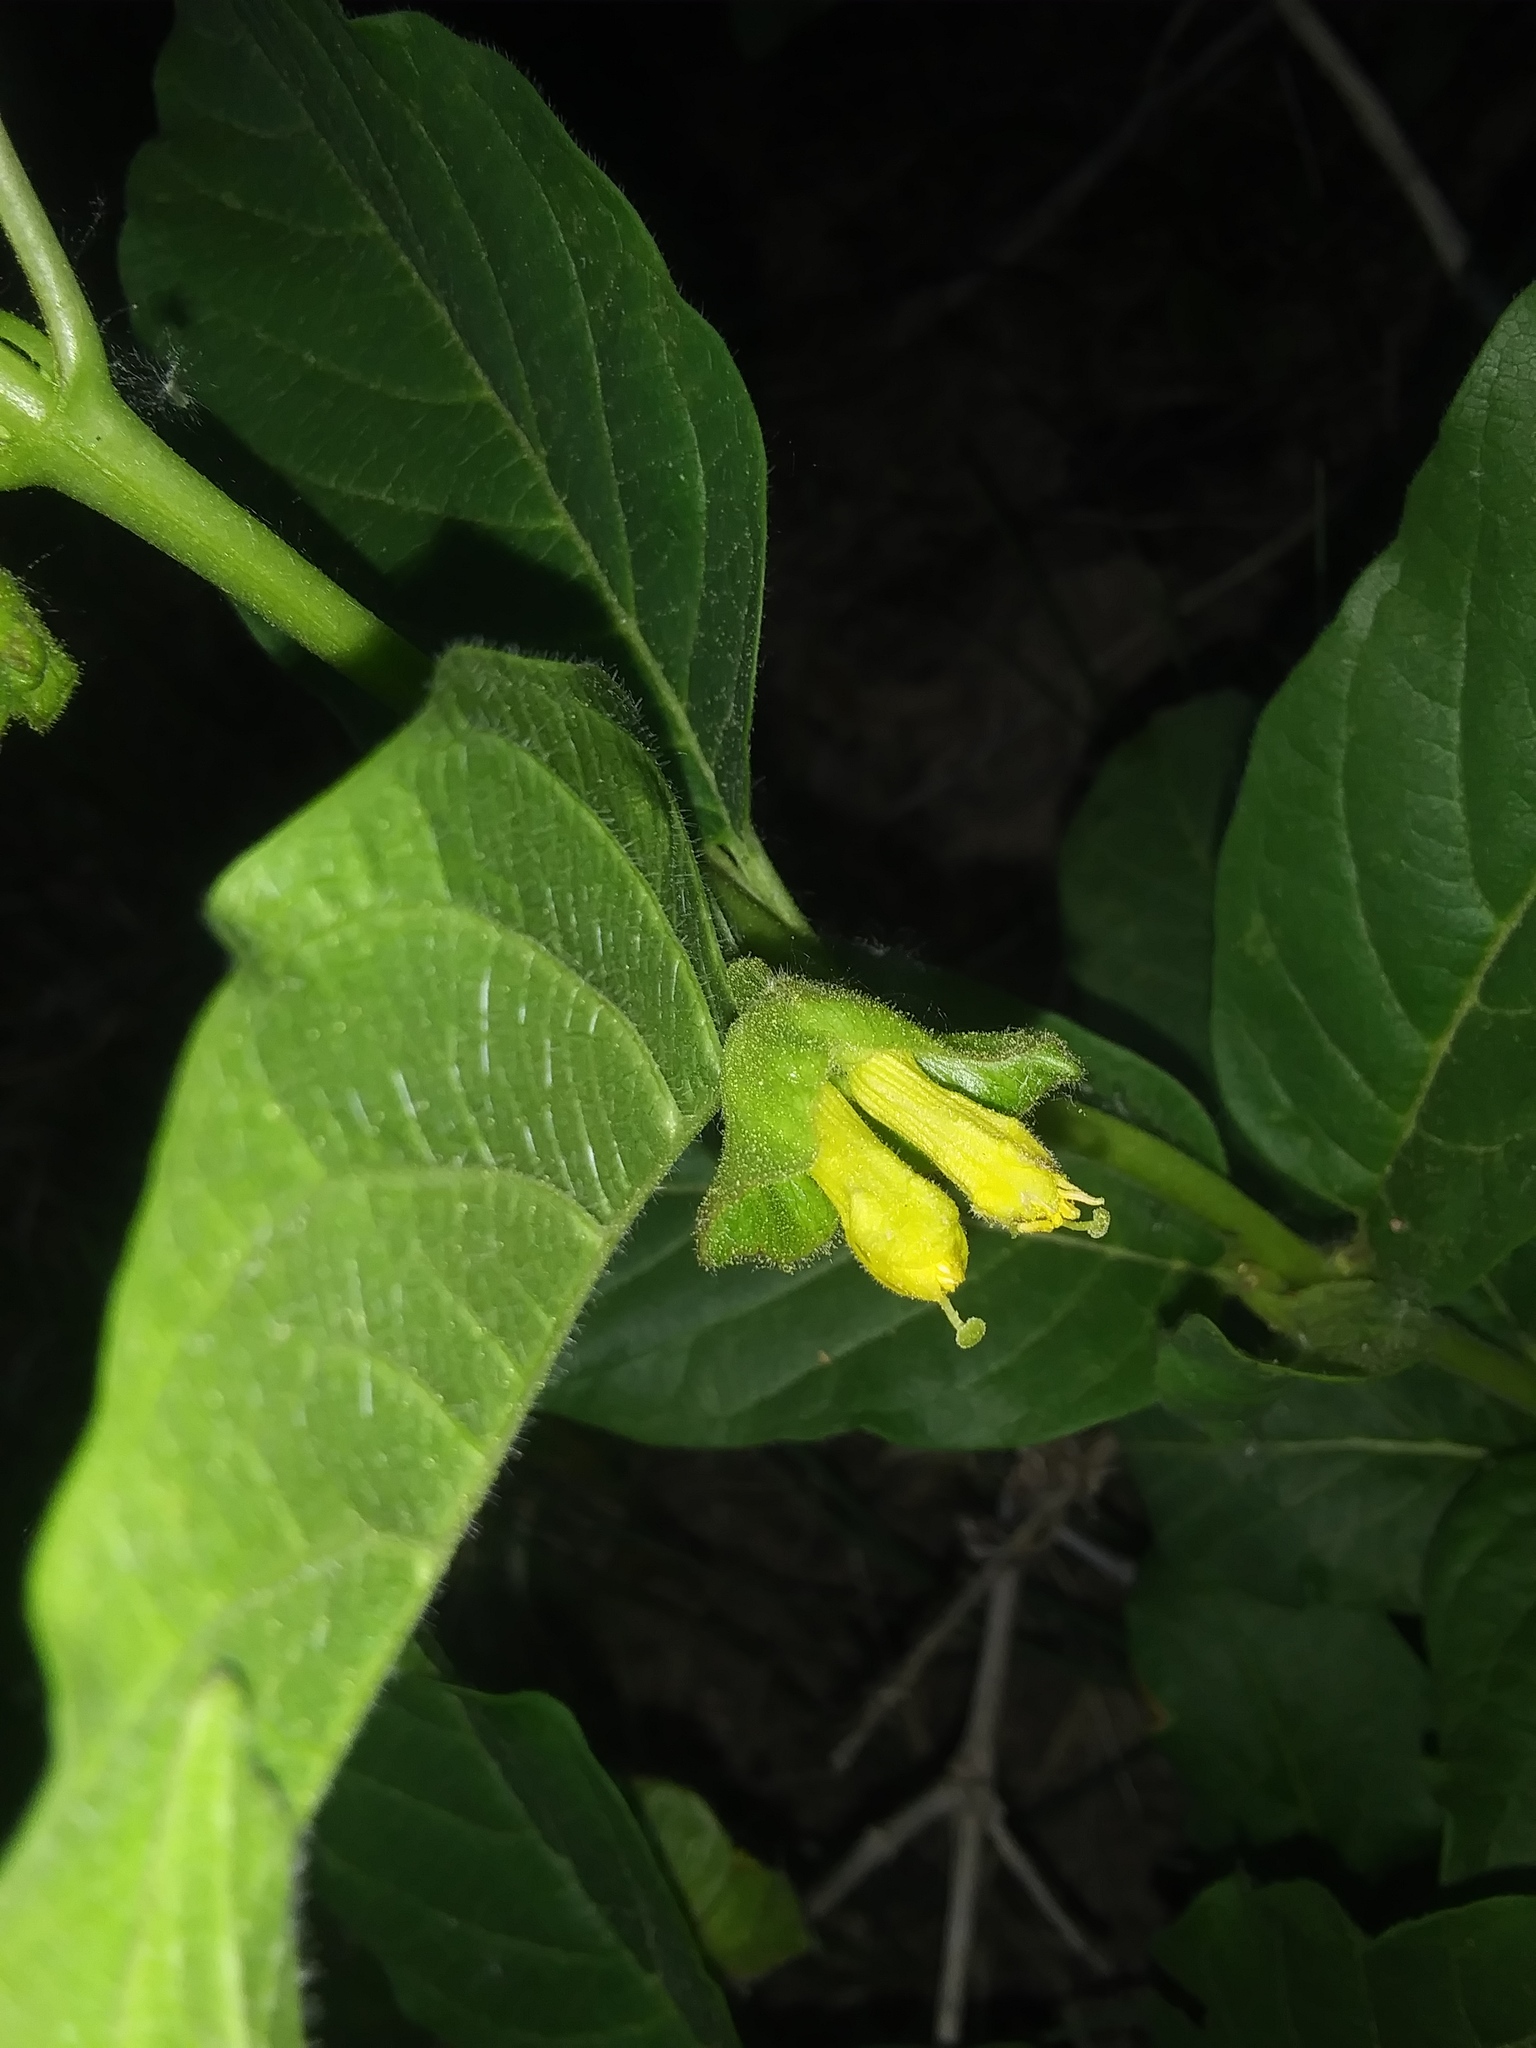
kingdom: Plantae
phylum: Tracheophyta
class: Magnoliopsida
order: Dipsacales
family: Caprifoliaceae
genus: Lonicera
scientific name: Lonicera involucrata
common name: Californian honeysuckle
